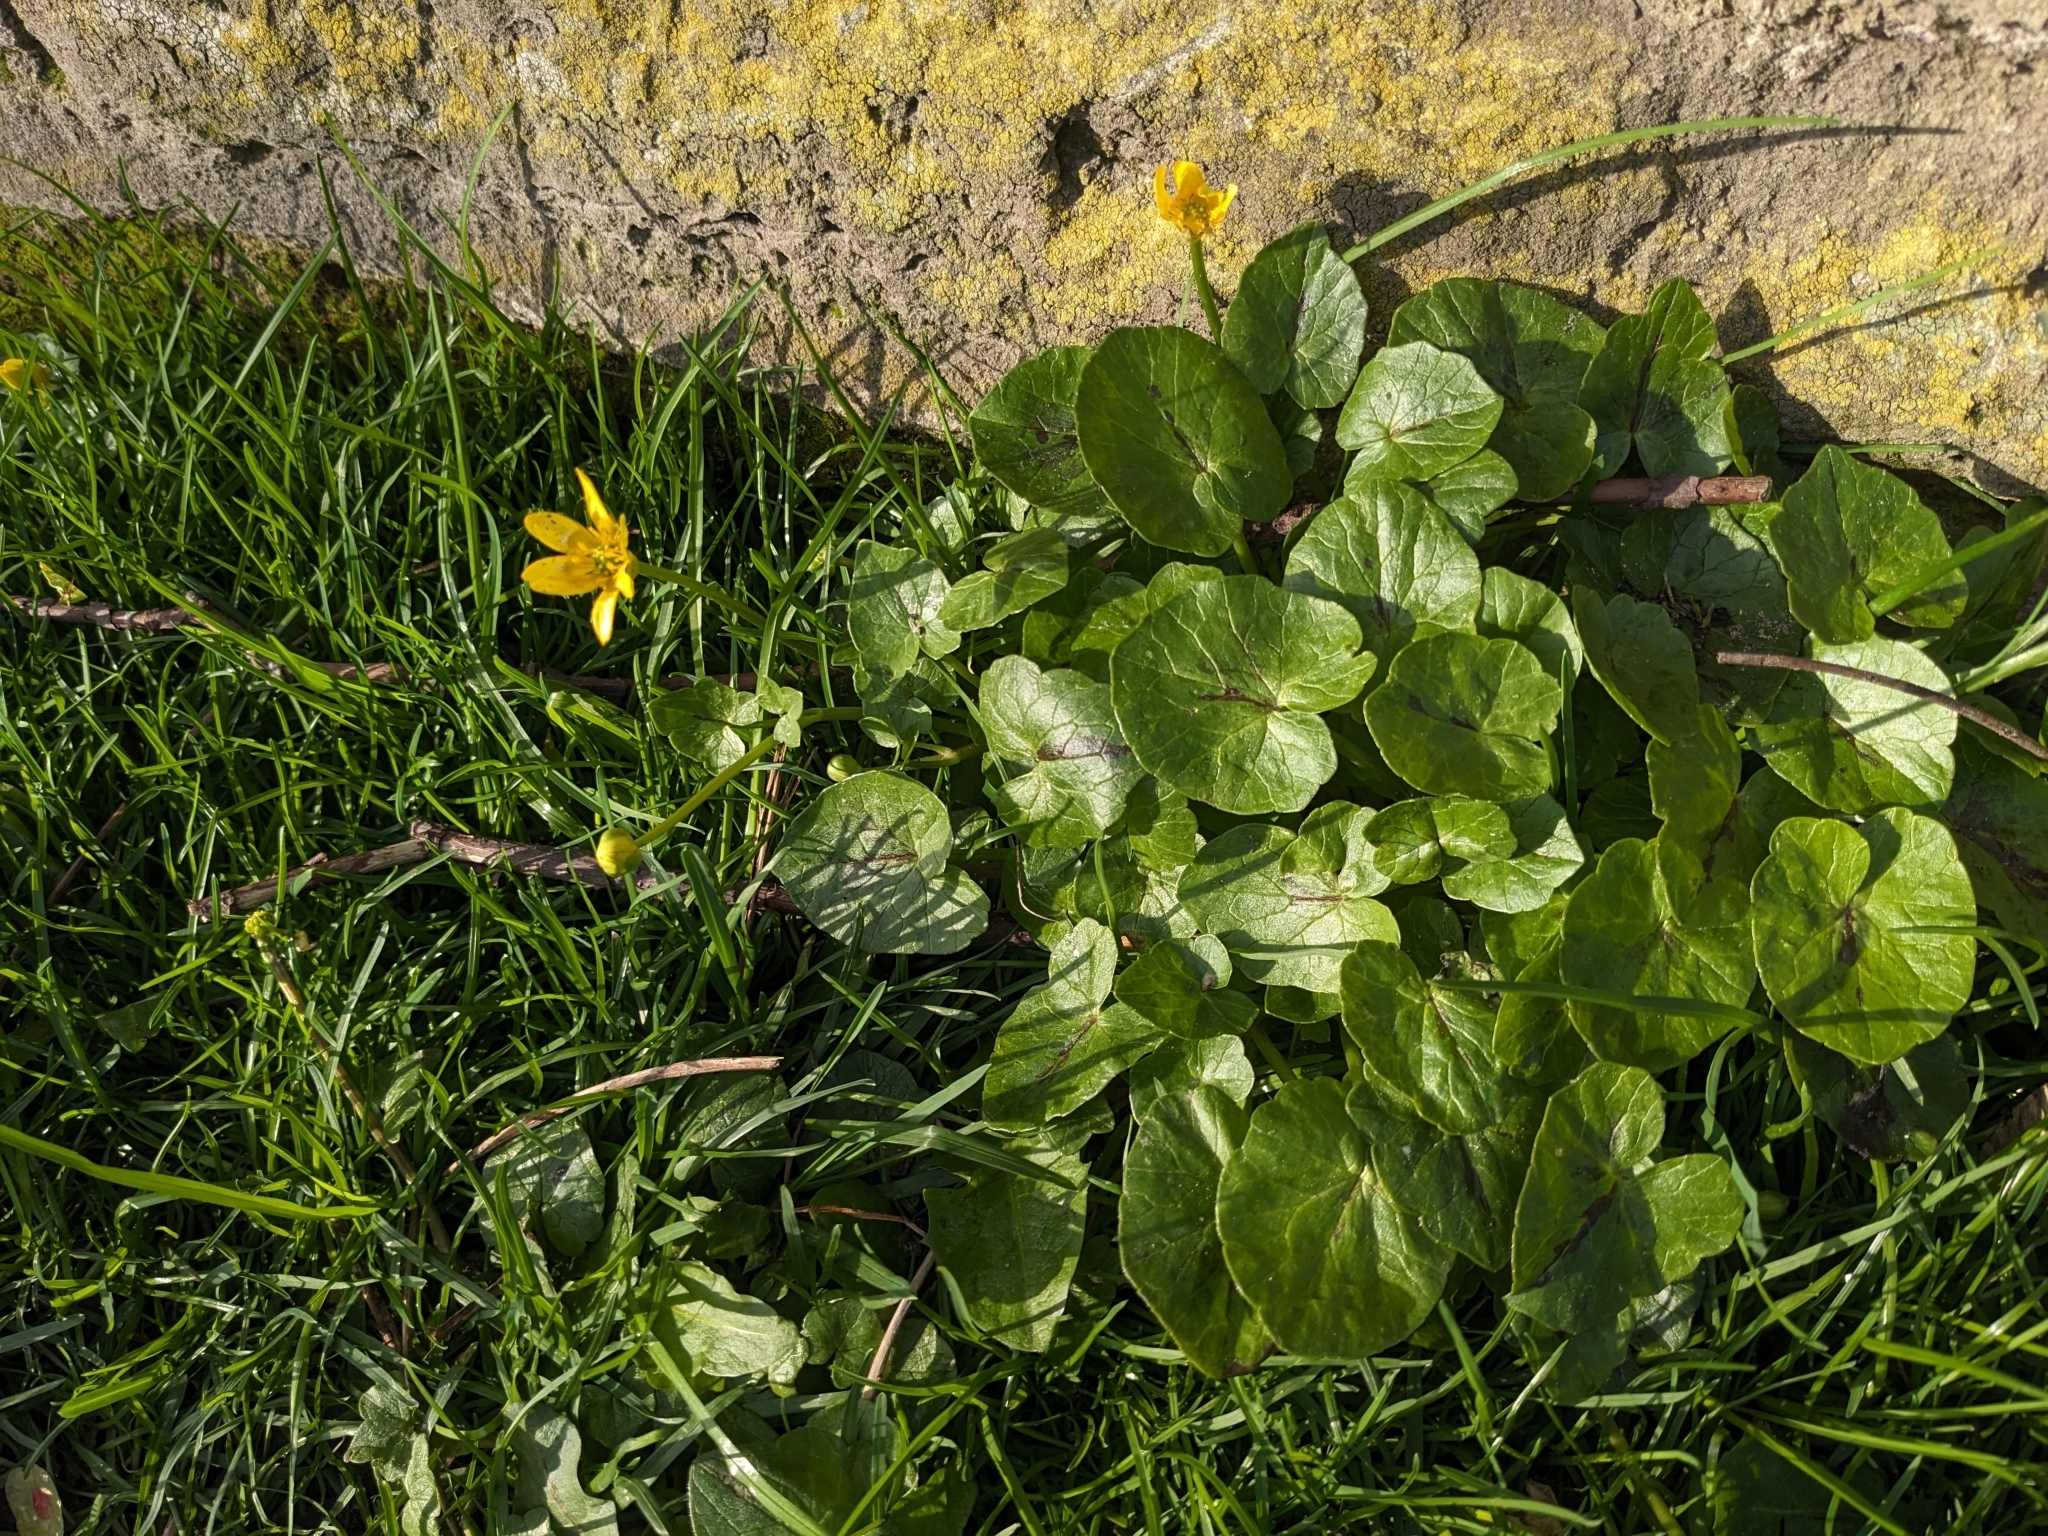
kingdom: Plantae
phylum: Tracheophyta
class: Magnoliopsida
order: Ranunculales
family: Ranunculaceae
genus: Ficaria
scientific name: Ficaria verna
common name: Lesser celandine
